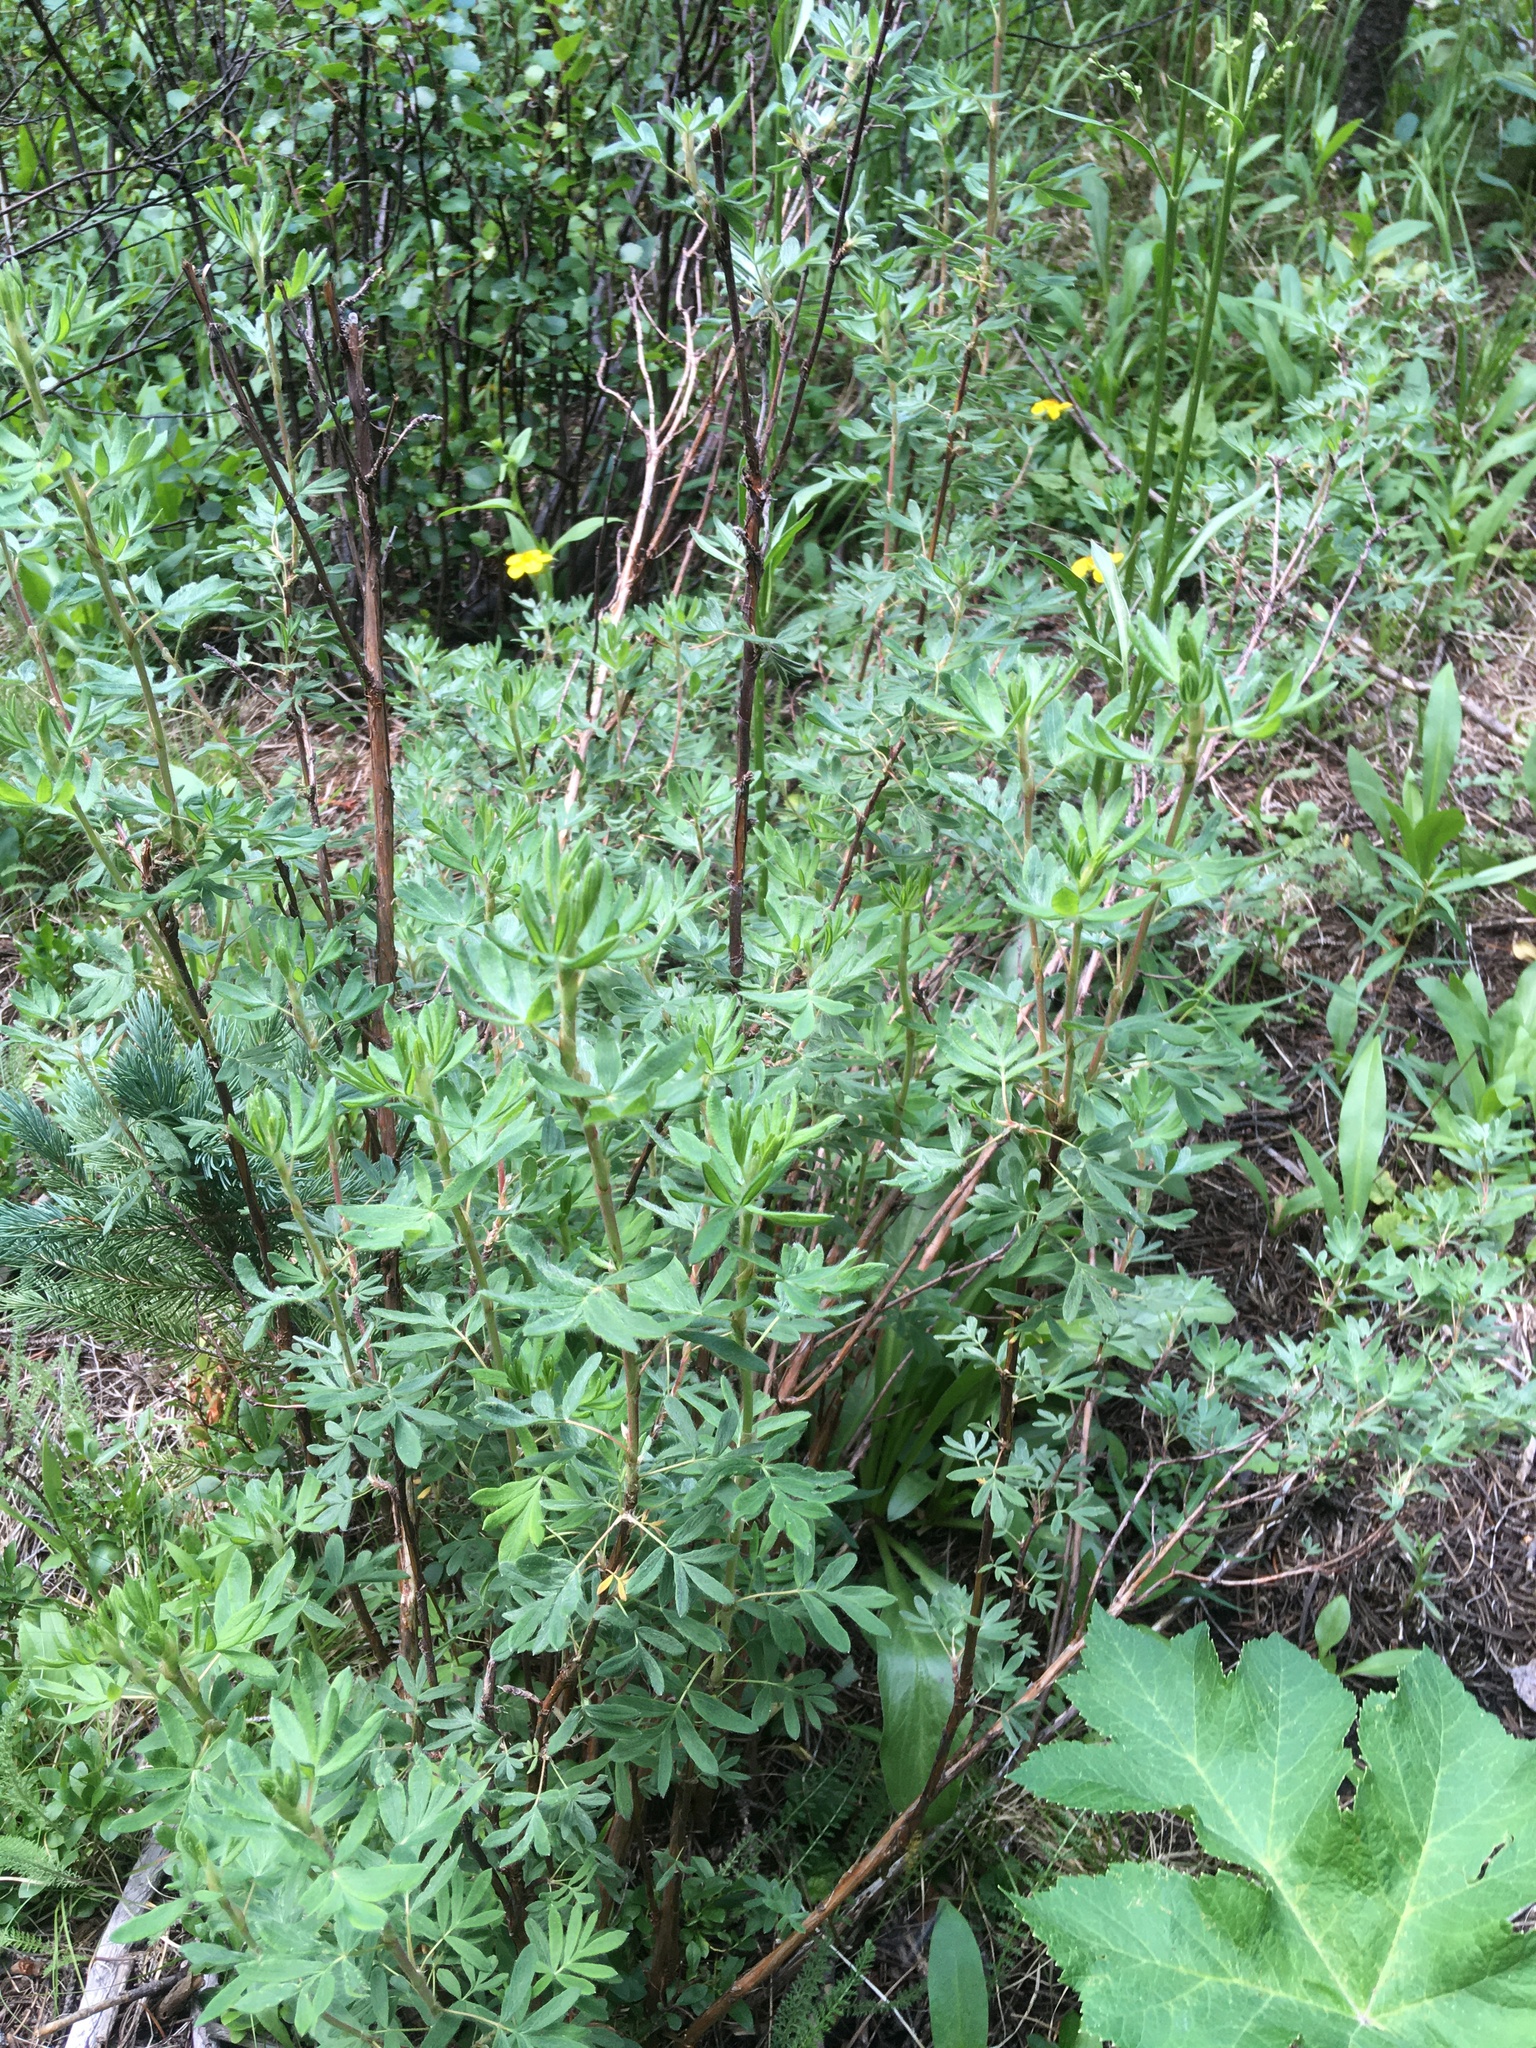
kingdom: Plantae
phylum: Tracheophyta
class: Magnoliopsida
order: Rosales
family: Rosaceae
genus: Dasiphora
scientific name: Dasiphora fruticosa
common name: Shrubby cinquefoil
